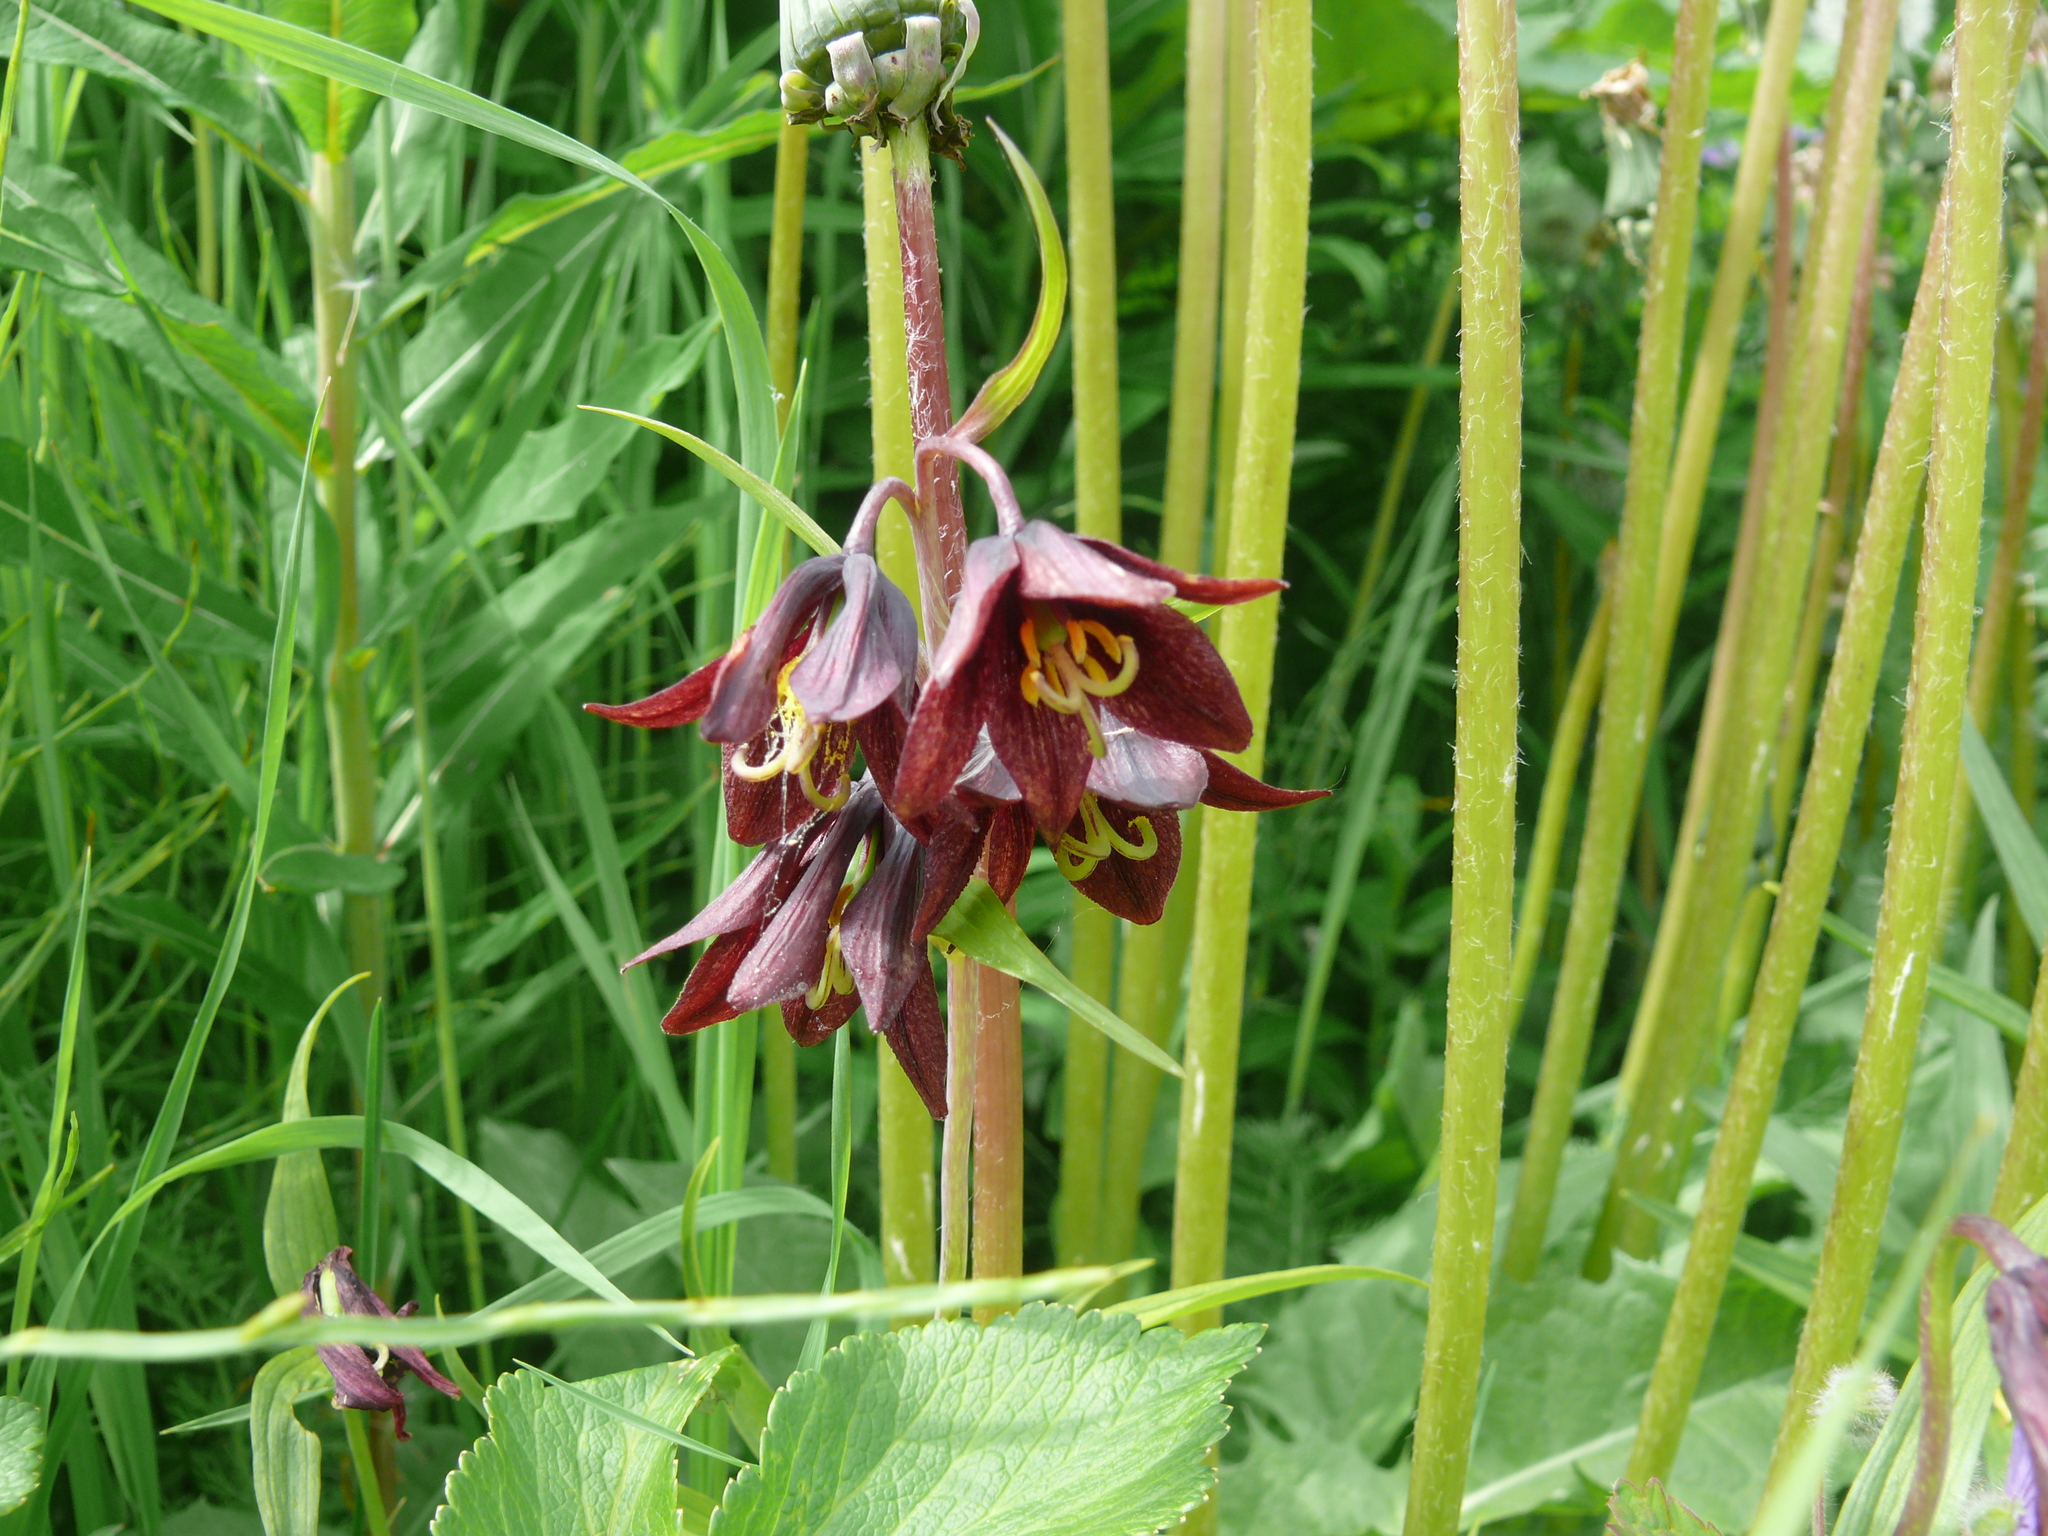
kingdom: Plantae
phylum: Tracheophyta
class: Liliopsida
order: Liliales
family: Liliaceae
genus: Fritillaria
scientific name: Fritillaria camschatcensis
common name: Kamchatka fritillary
